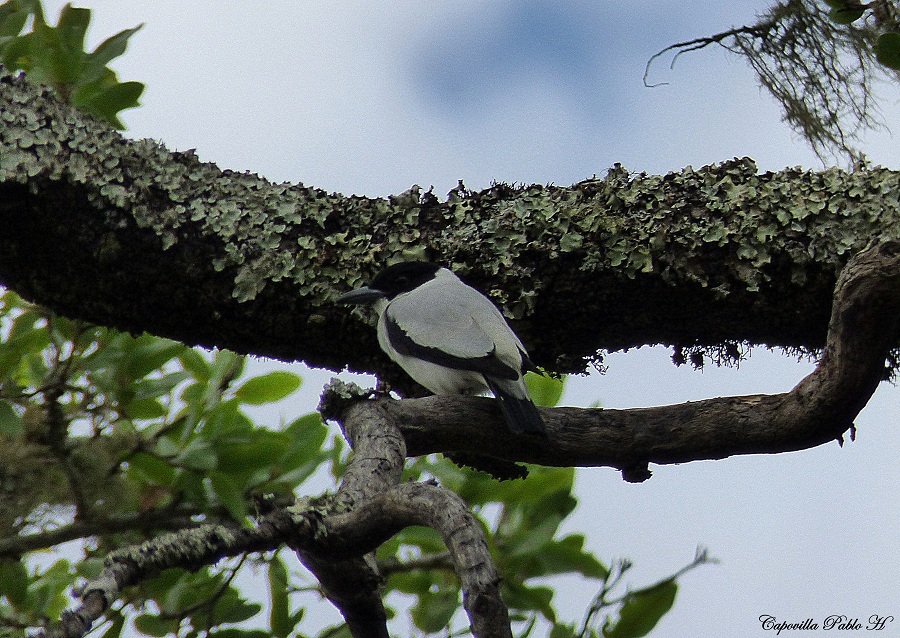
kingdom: Animalia
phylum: Chordata
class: Aves
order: Passeriformes
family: Cotingidae
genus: Tityra
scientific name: Tityra inquisitor
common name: Black-crowned tityra
